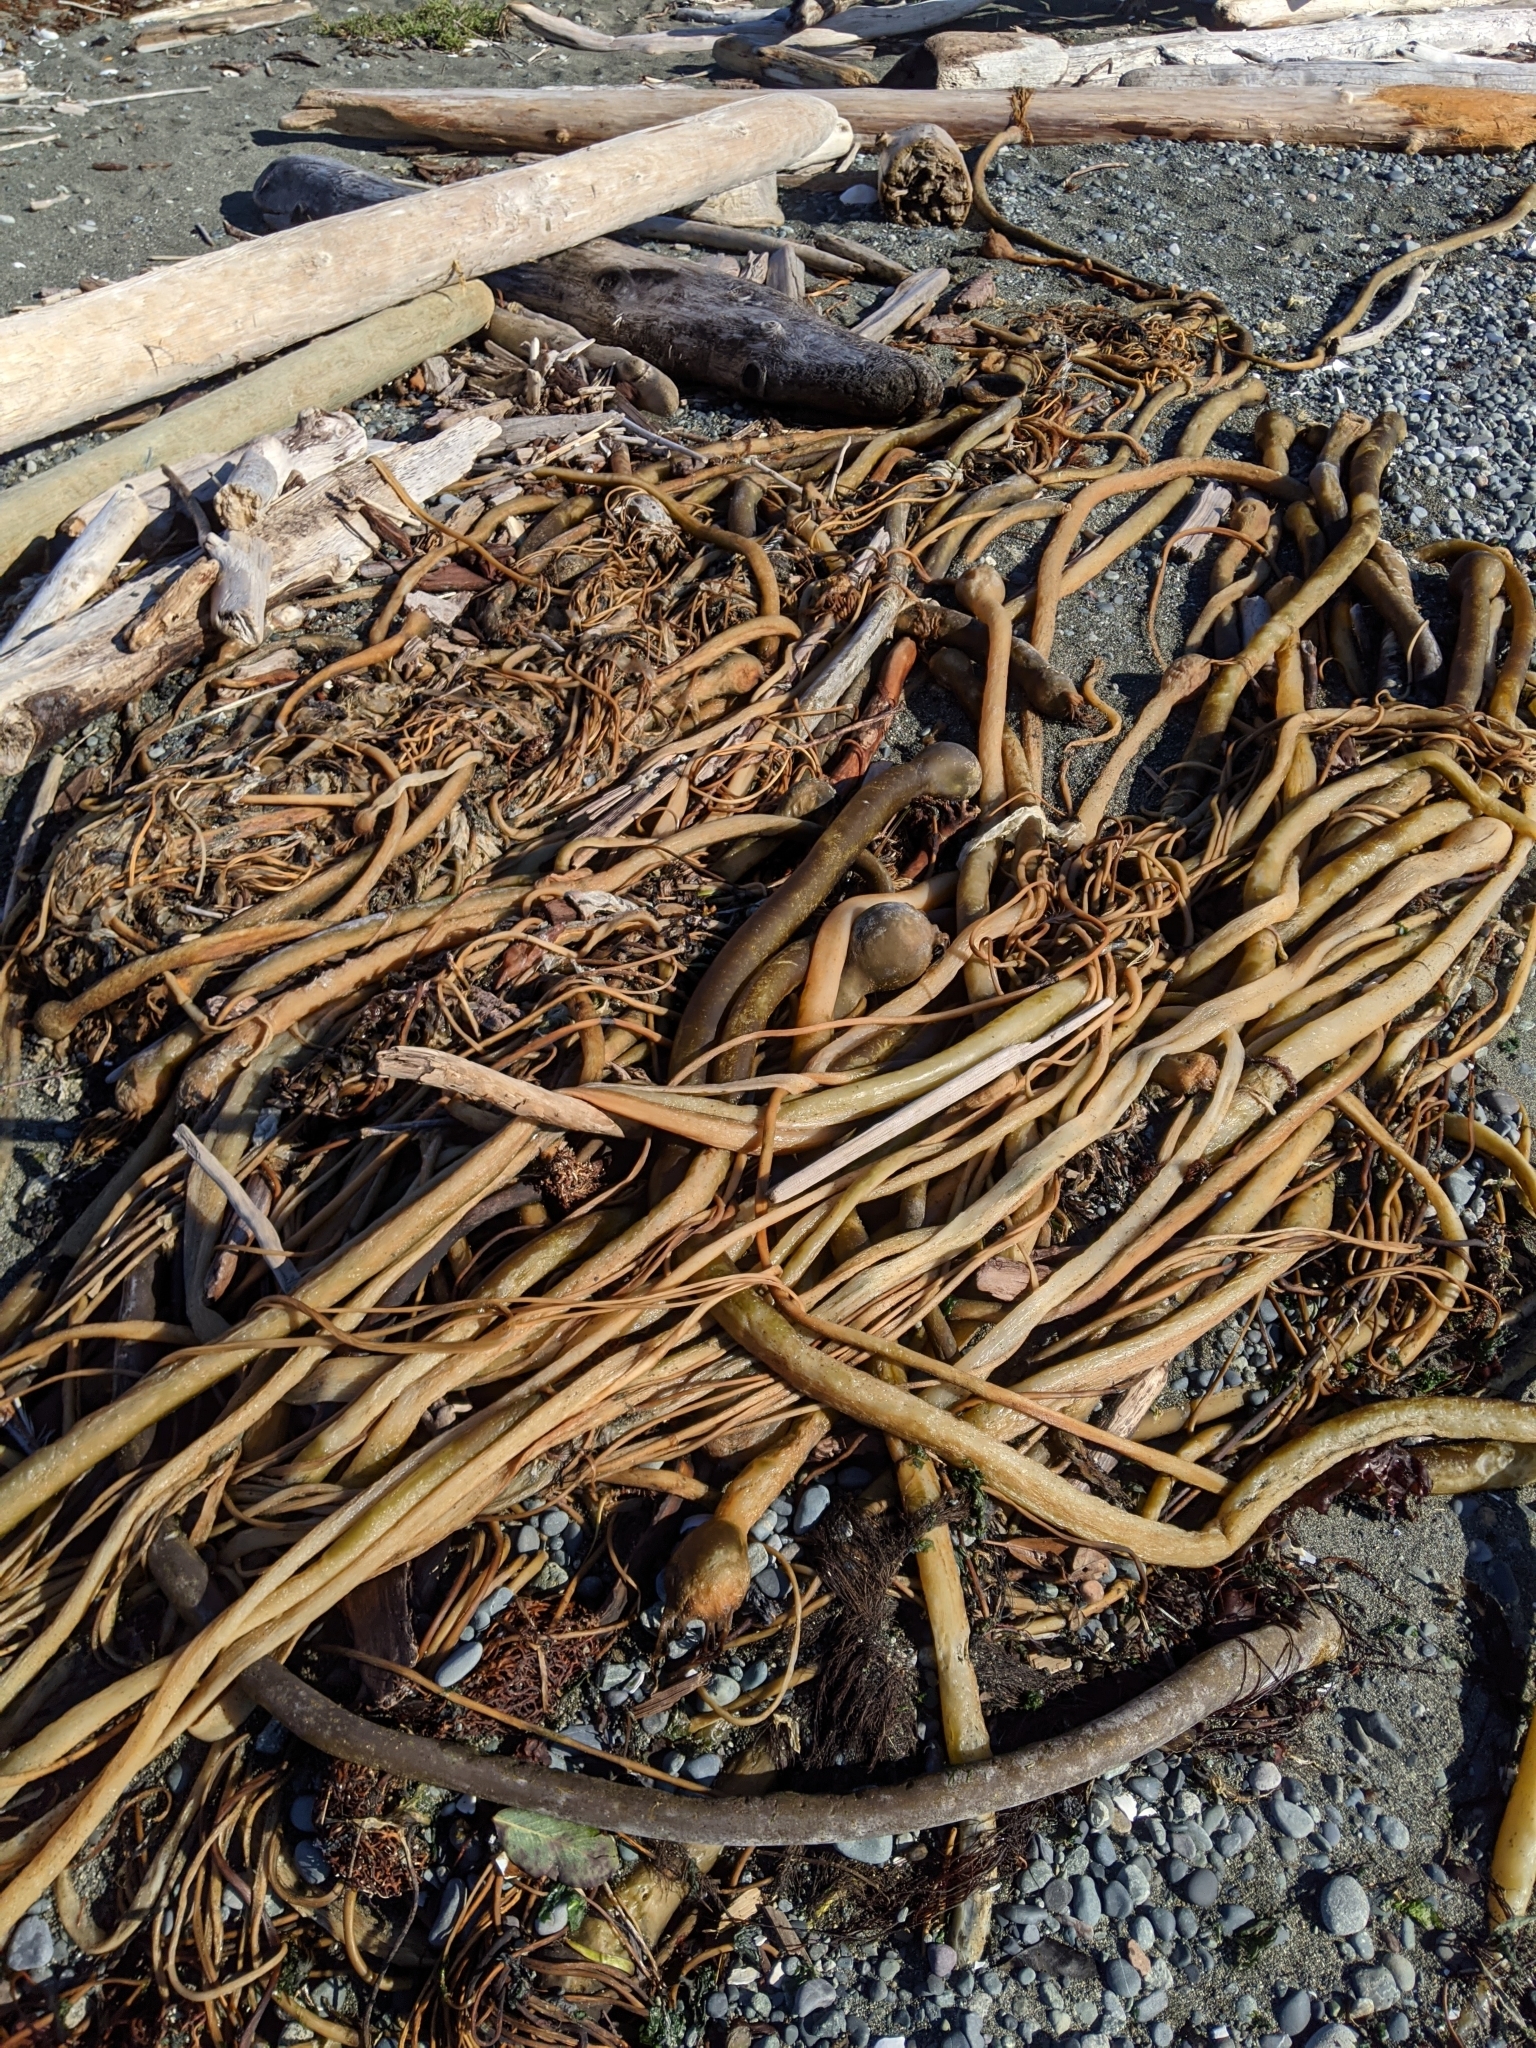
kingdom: Chromista
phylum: Ochrophyta
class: Phaeophyceae
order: Laminariales
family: Laminariaceae
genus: Nereocystis
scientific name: Nereocystis luetkeana
